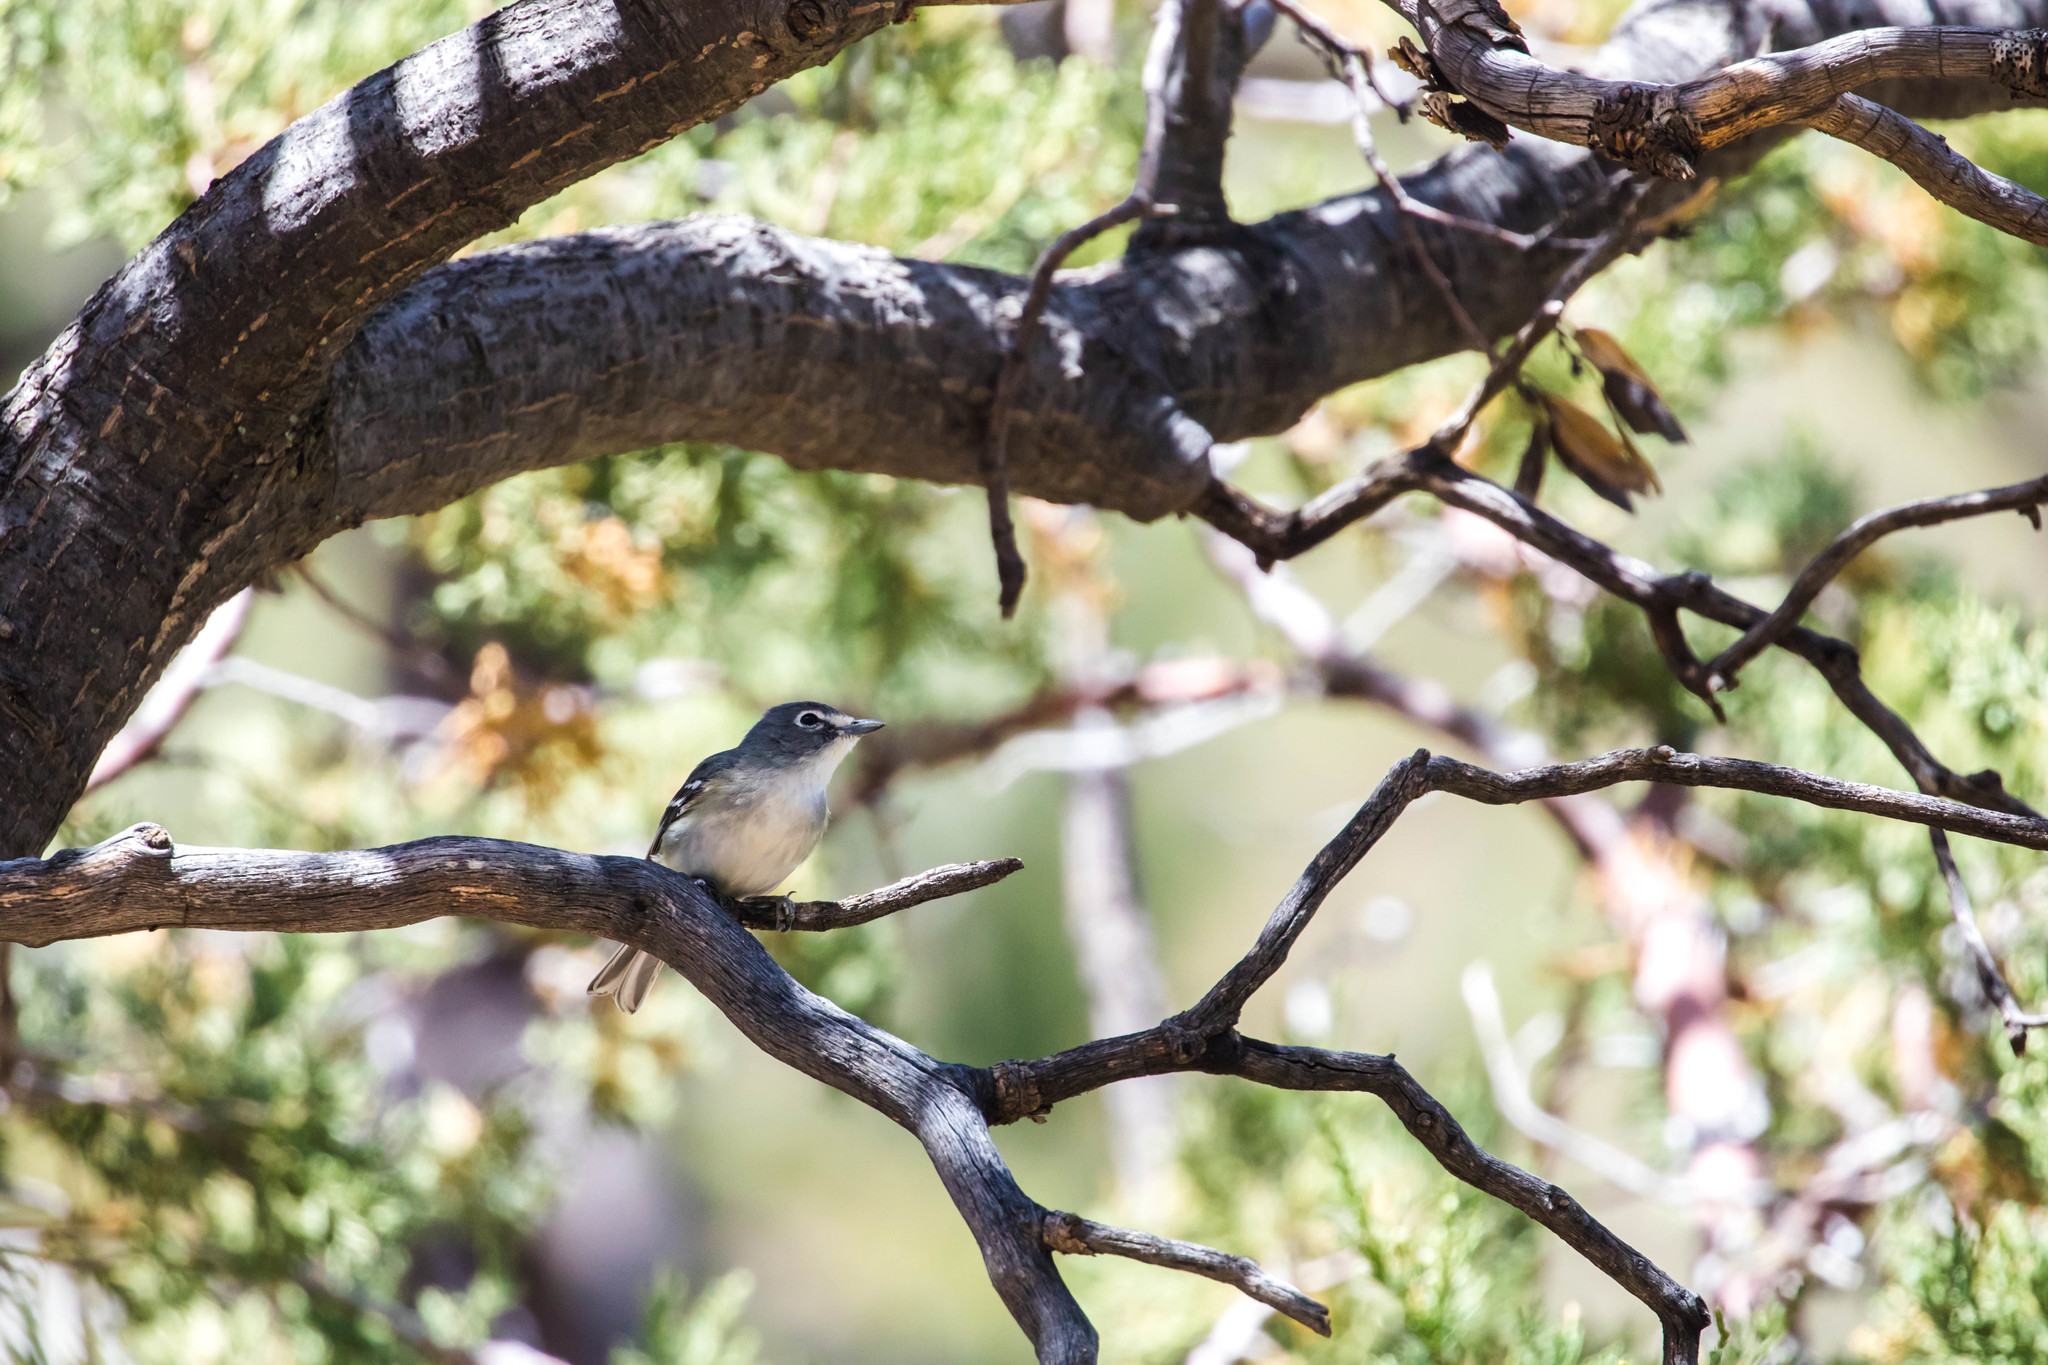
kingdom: Animalia
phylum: Chordata
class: Aves
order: Passeriformes
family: Vireonidae
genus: Vireo
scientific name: Vireo plumbeus
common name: Plumbeous vireo
